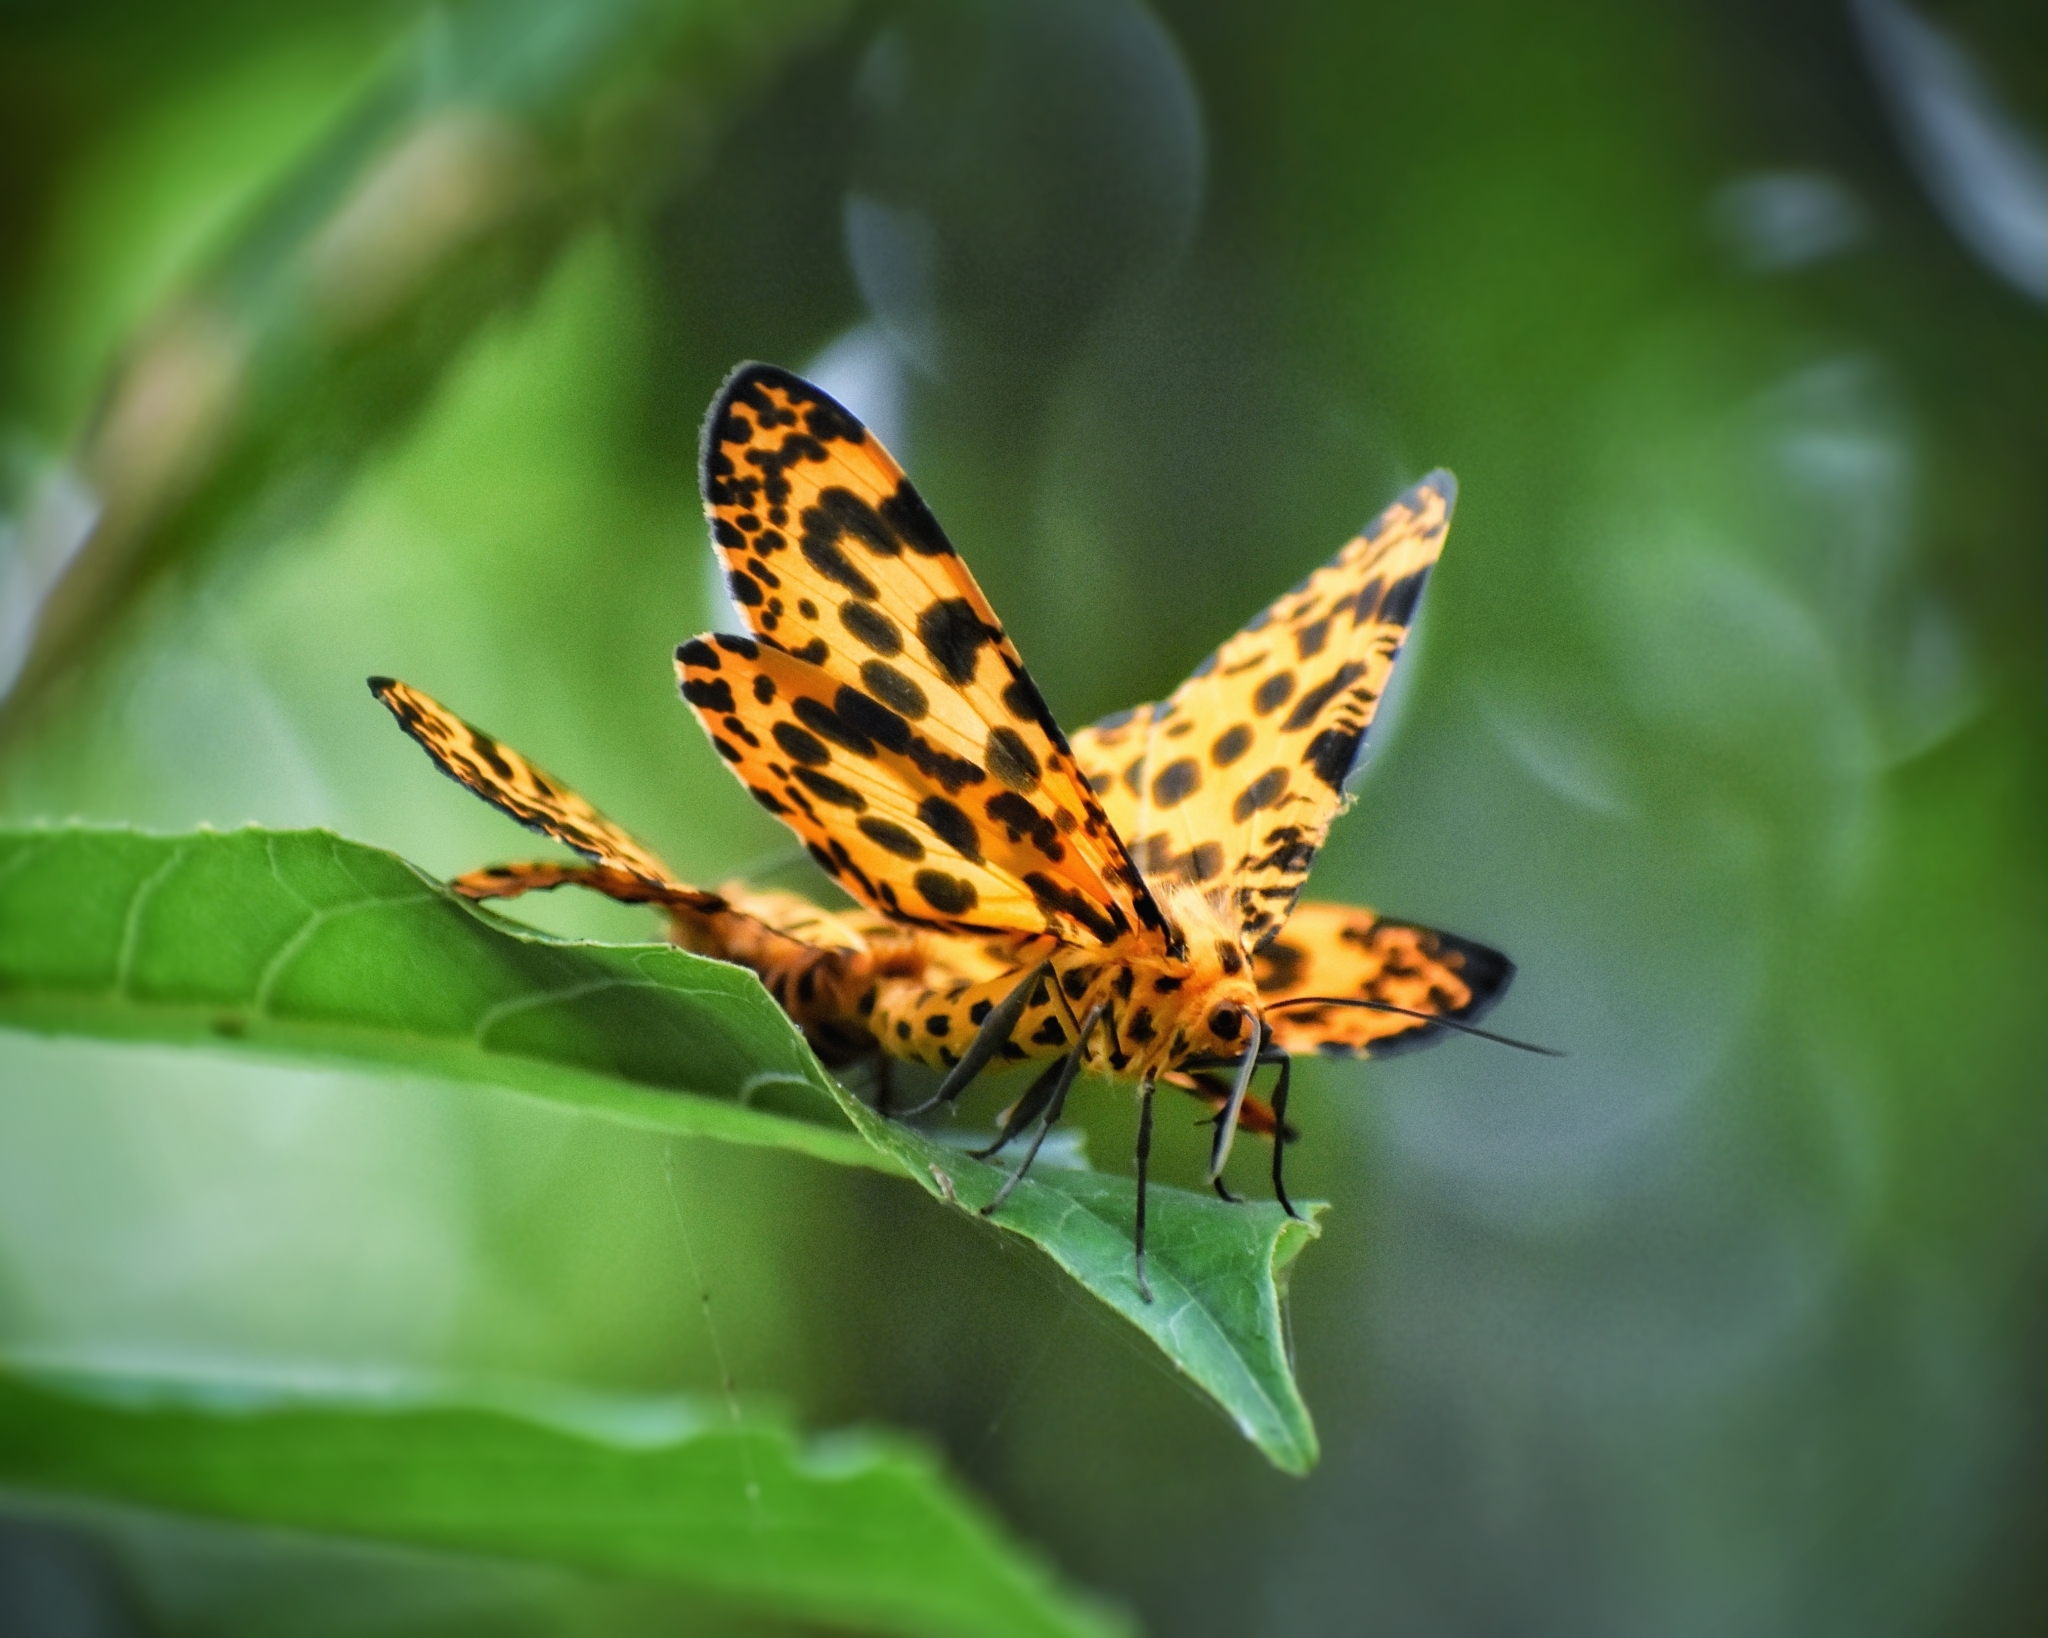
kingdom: Animalia
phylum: Arthropoda
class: Insecta
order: Lepidoptera
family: Geometridae
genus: Obeidia
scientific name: Obeidia Epobeidia tigrata
